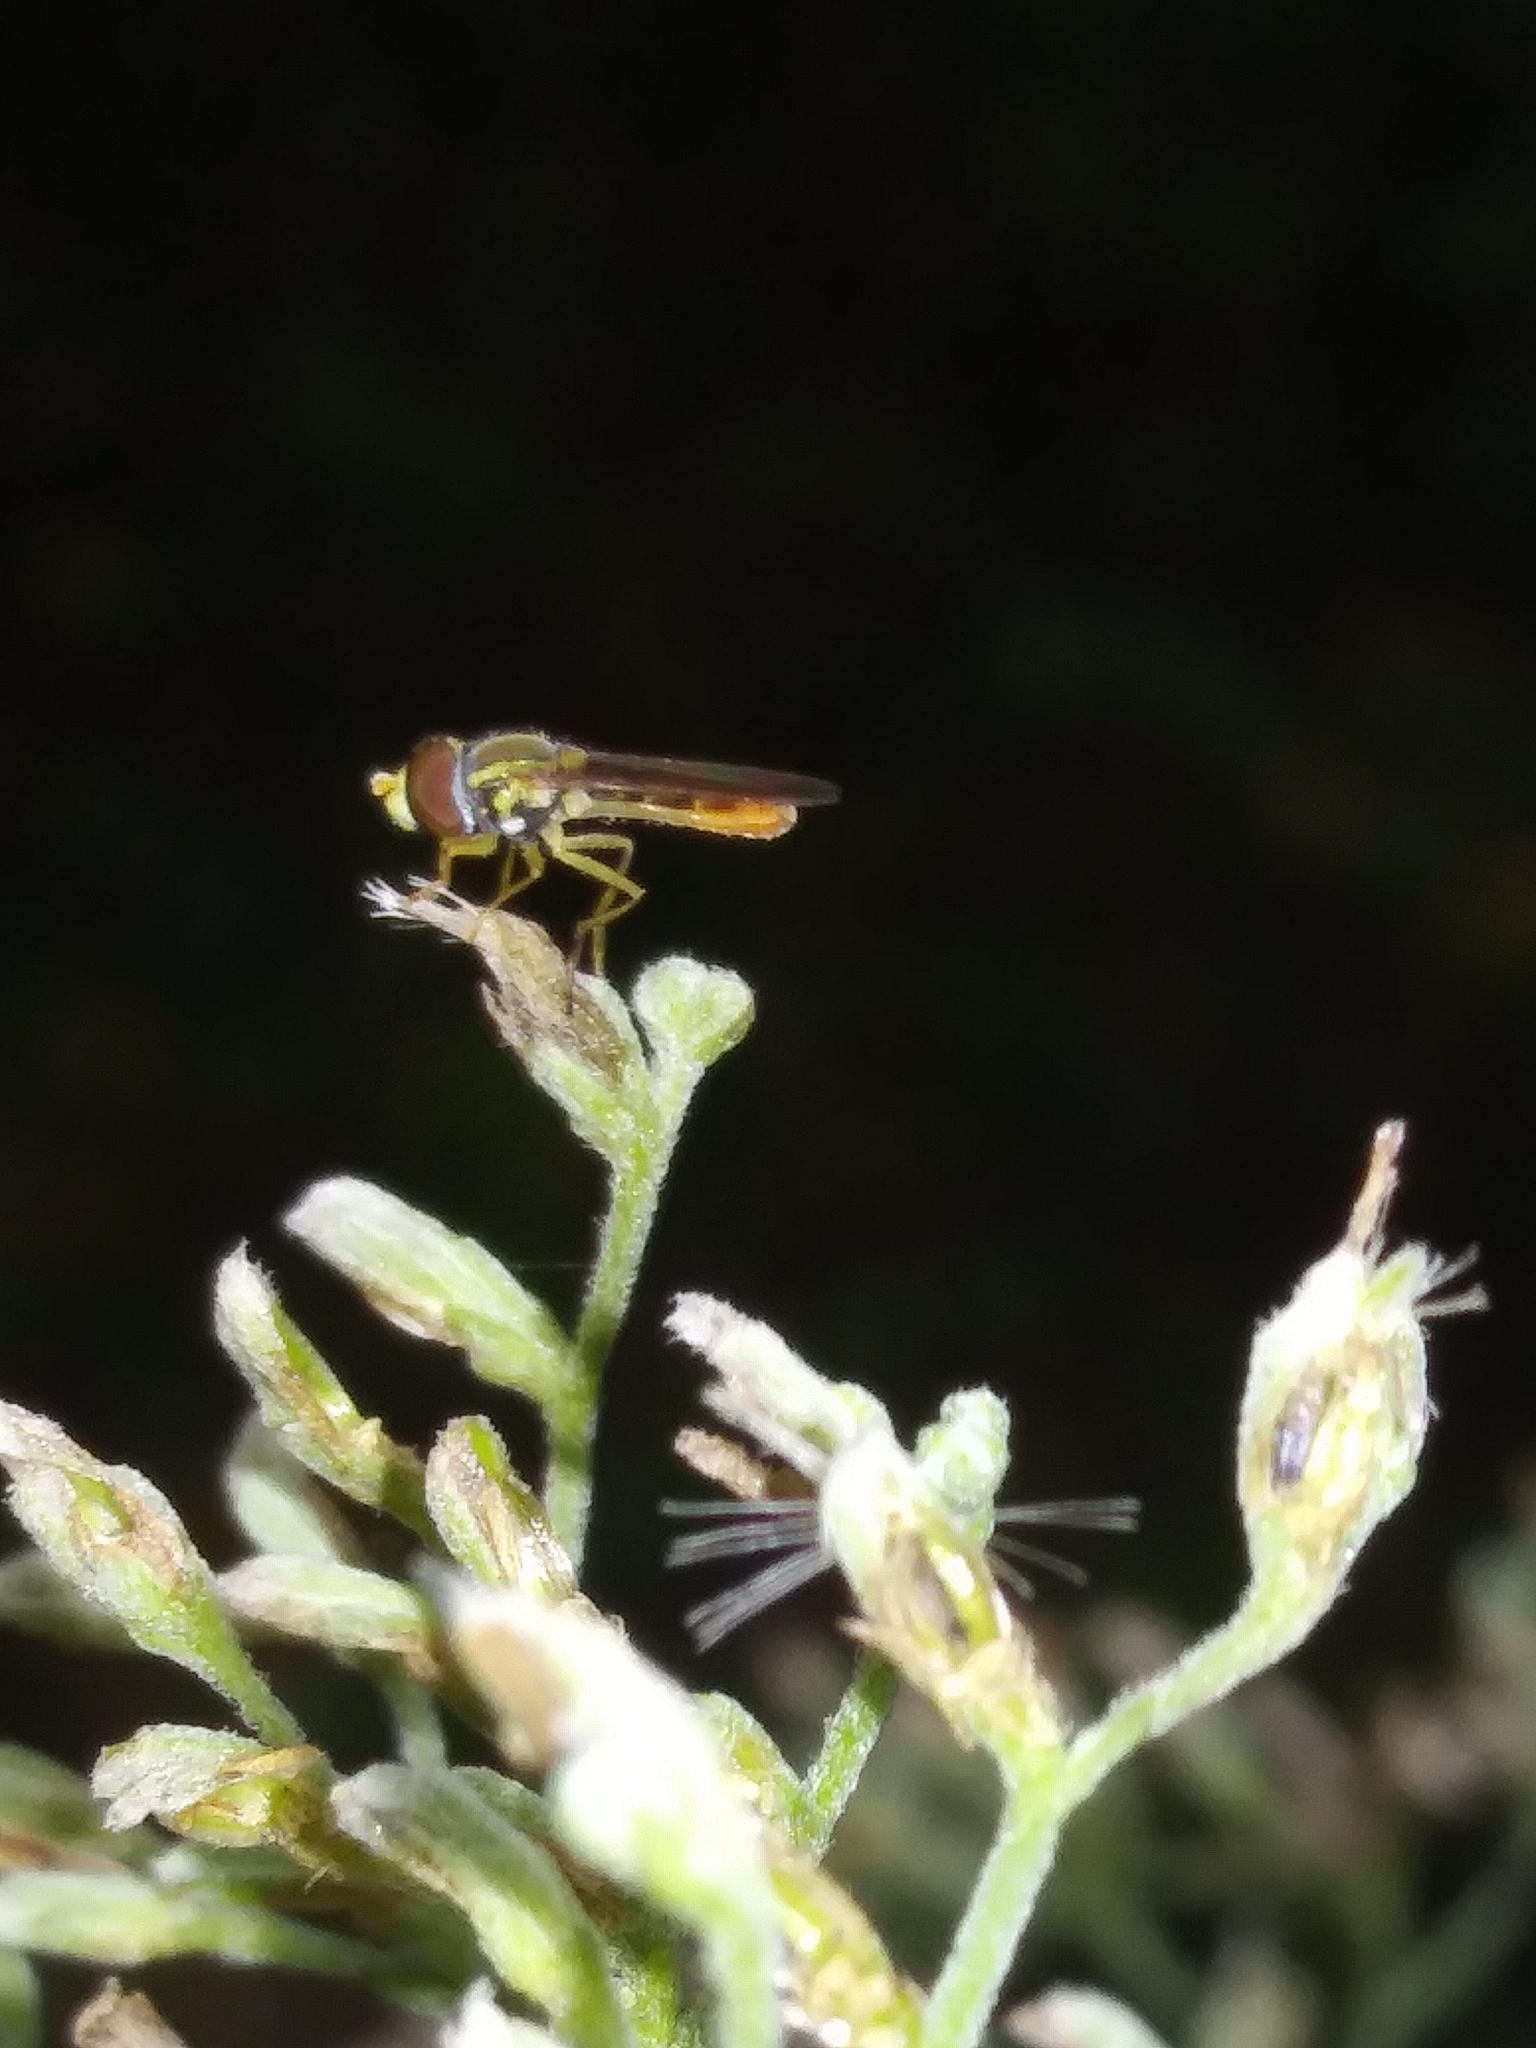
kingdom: Animalia
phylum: Arthropoda
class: Insecta
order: Diptera
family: Syrphidae
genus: Toxomerus
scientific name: Toxomerus marginatus
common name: Syrphid fly
